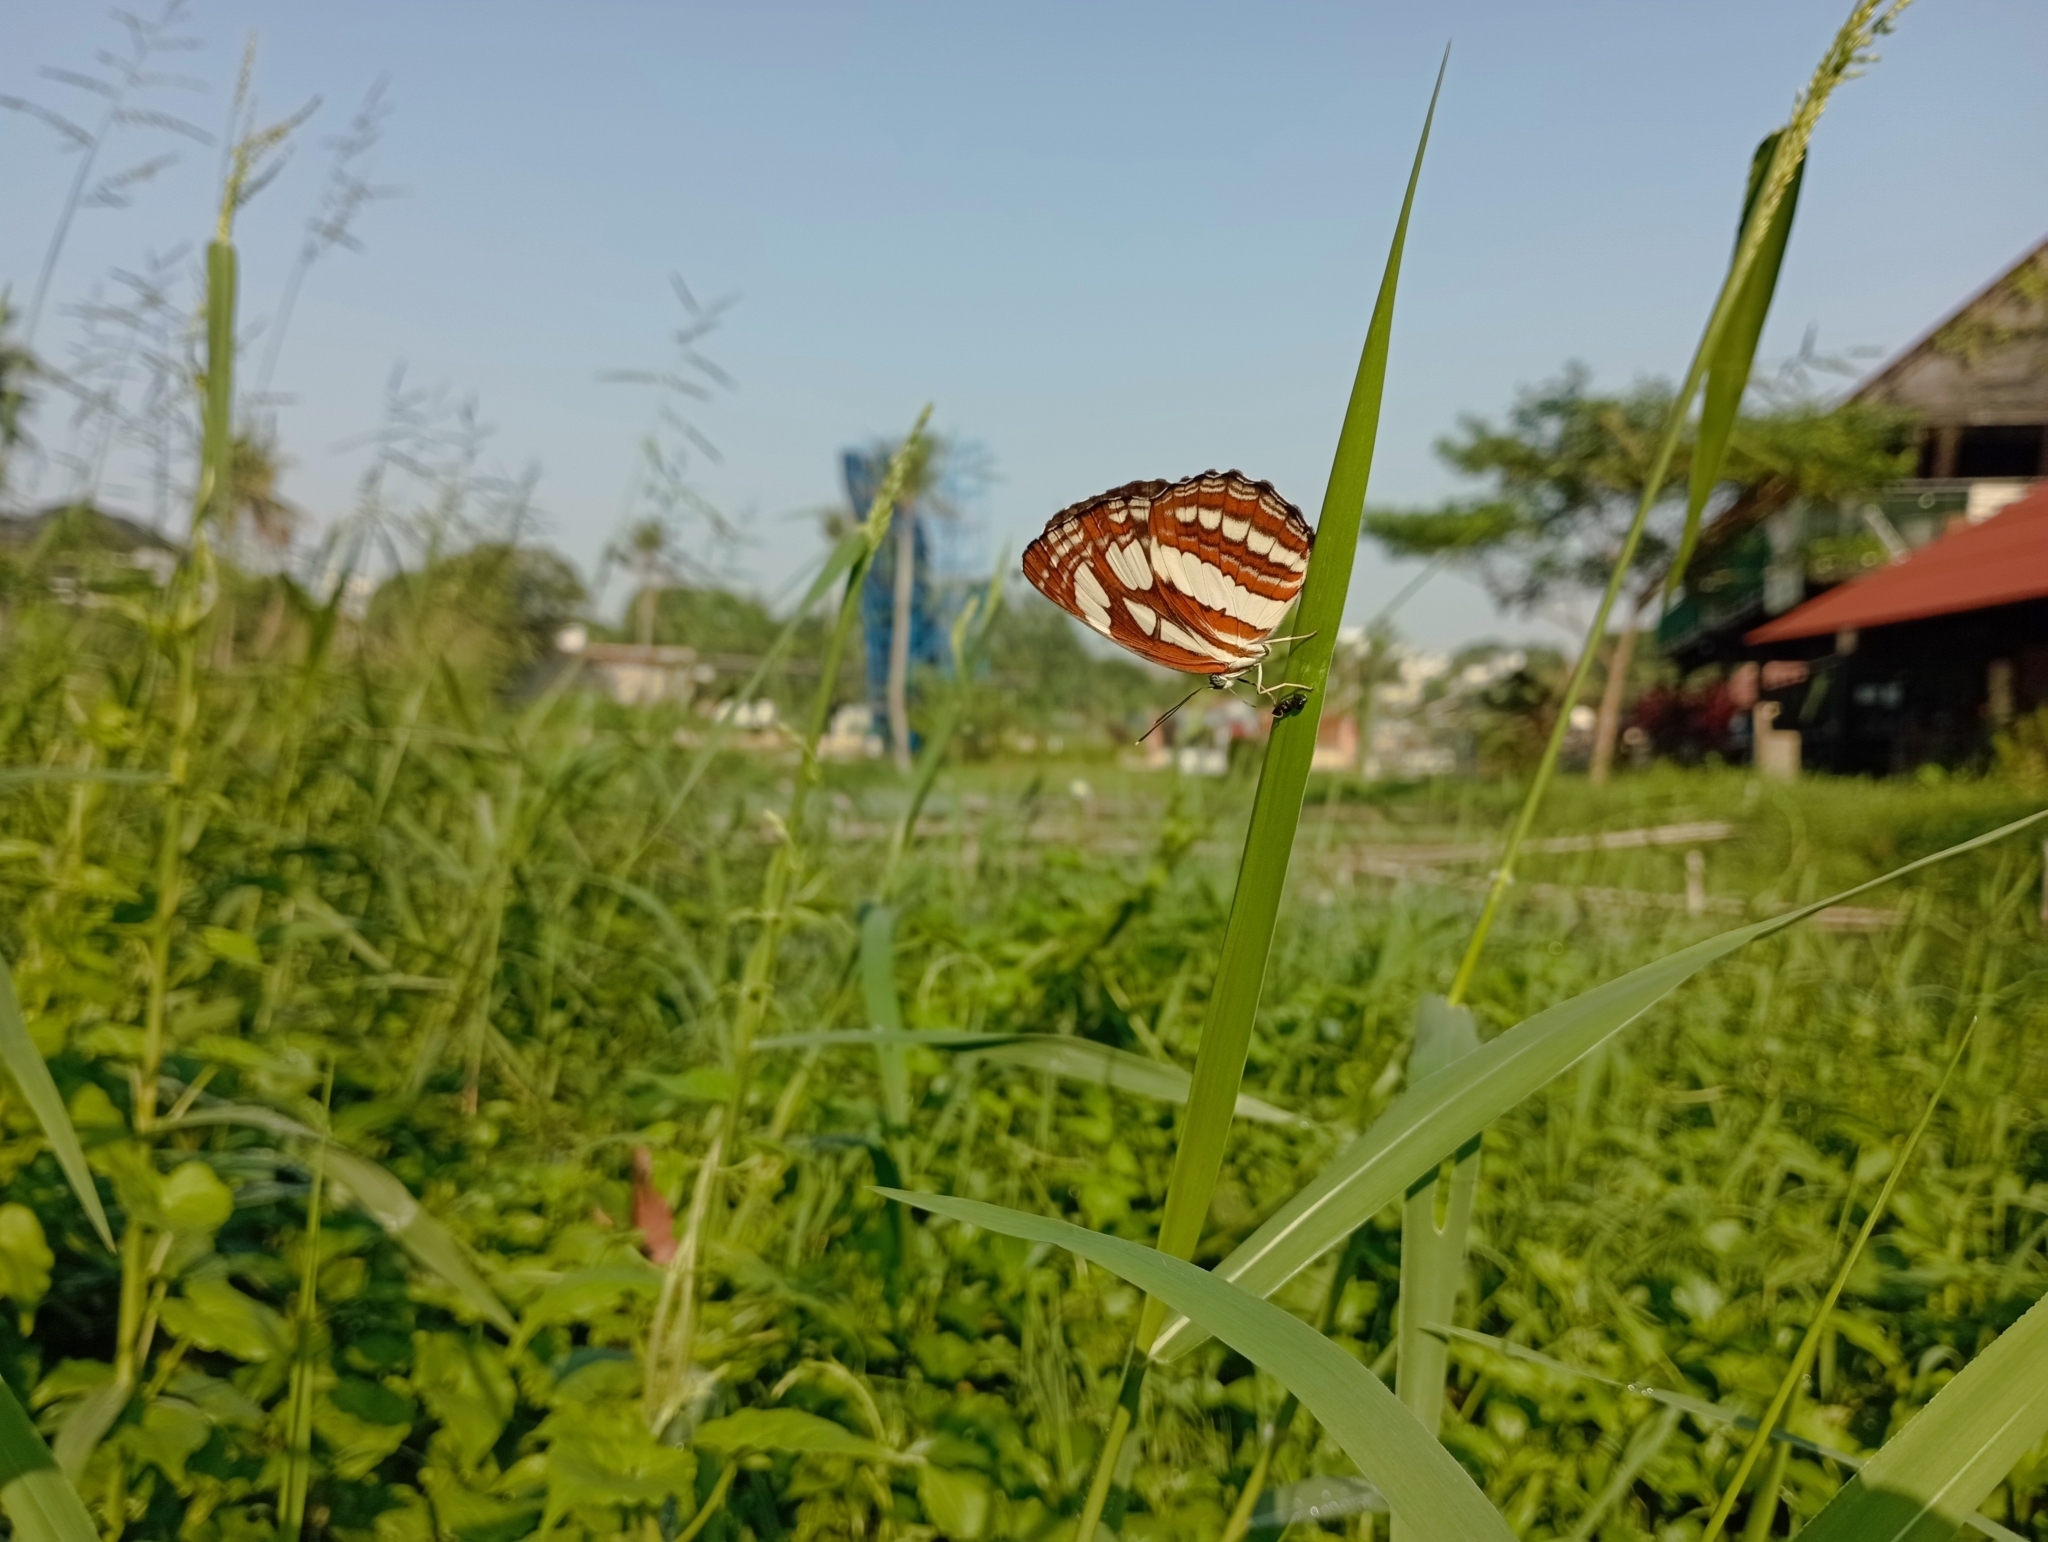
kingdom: Animalia
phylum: Arthropoda
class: Insecta
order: Lepidoptera
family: Nymphalidae
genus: Neptis
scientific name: Neptis hylas
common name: Common sailer
